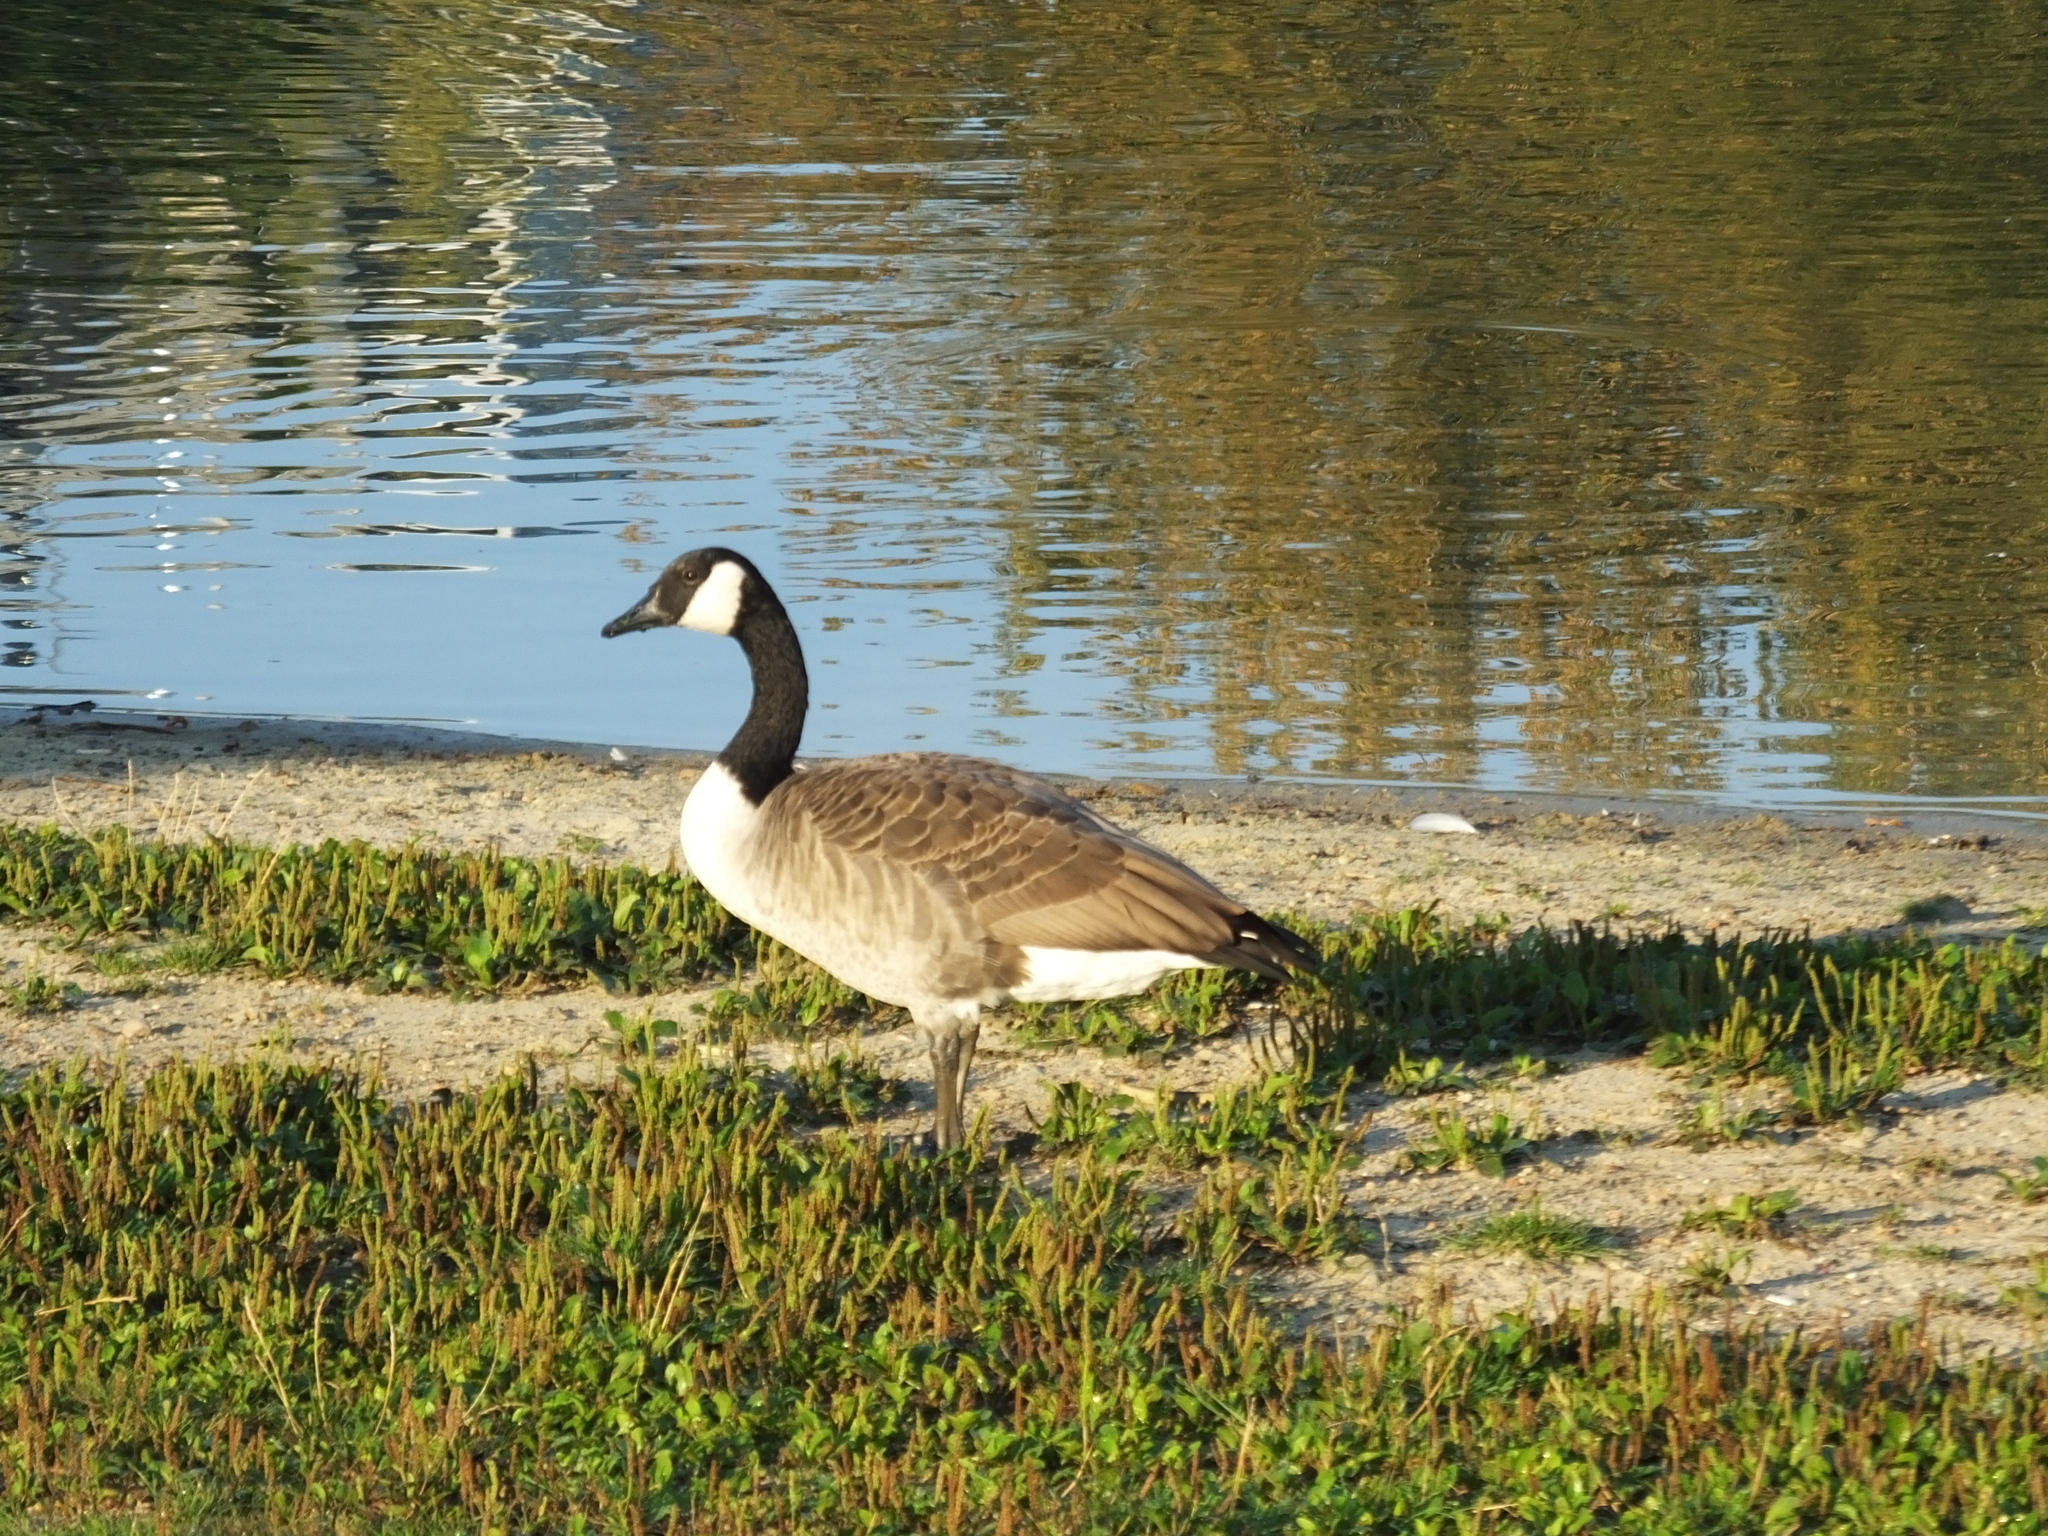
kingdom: Animalia
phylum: Chordata
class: Aves
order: Anseriformes
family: Anatidae
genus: Branta
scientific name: Branta canadensis
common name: Canada goose
